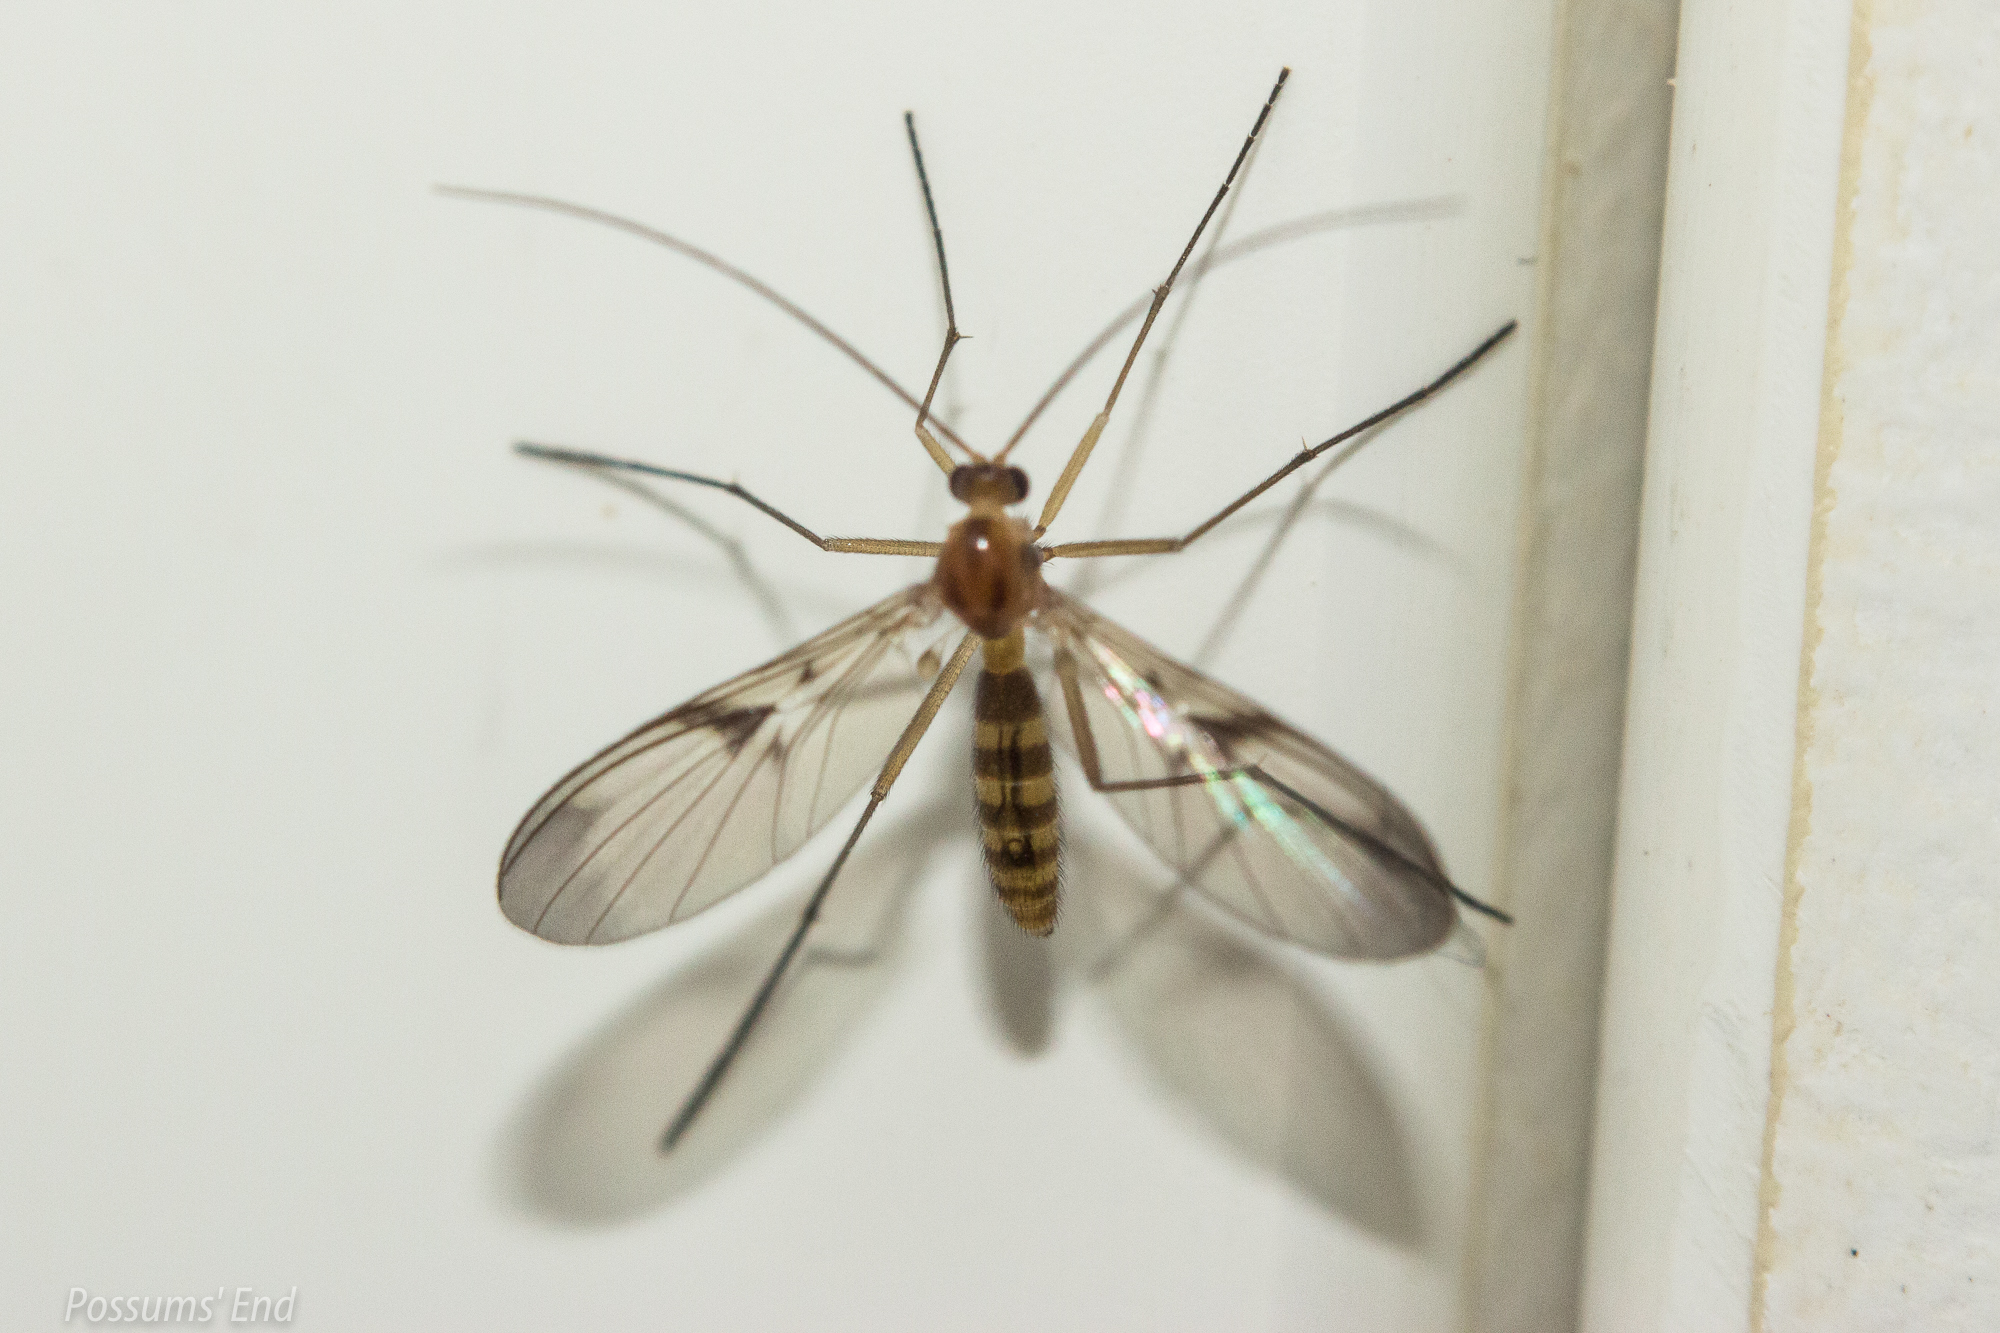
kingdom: Animalia
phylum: Arthropoda
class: Insecta
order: Diptera
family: Keroplatidae
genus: Macrocera
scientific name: Macrocera scoparia
